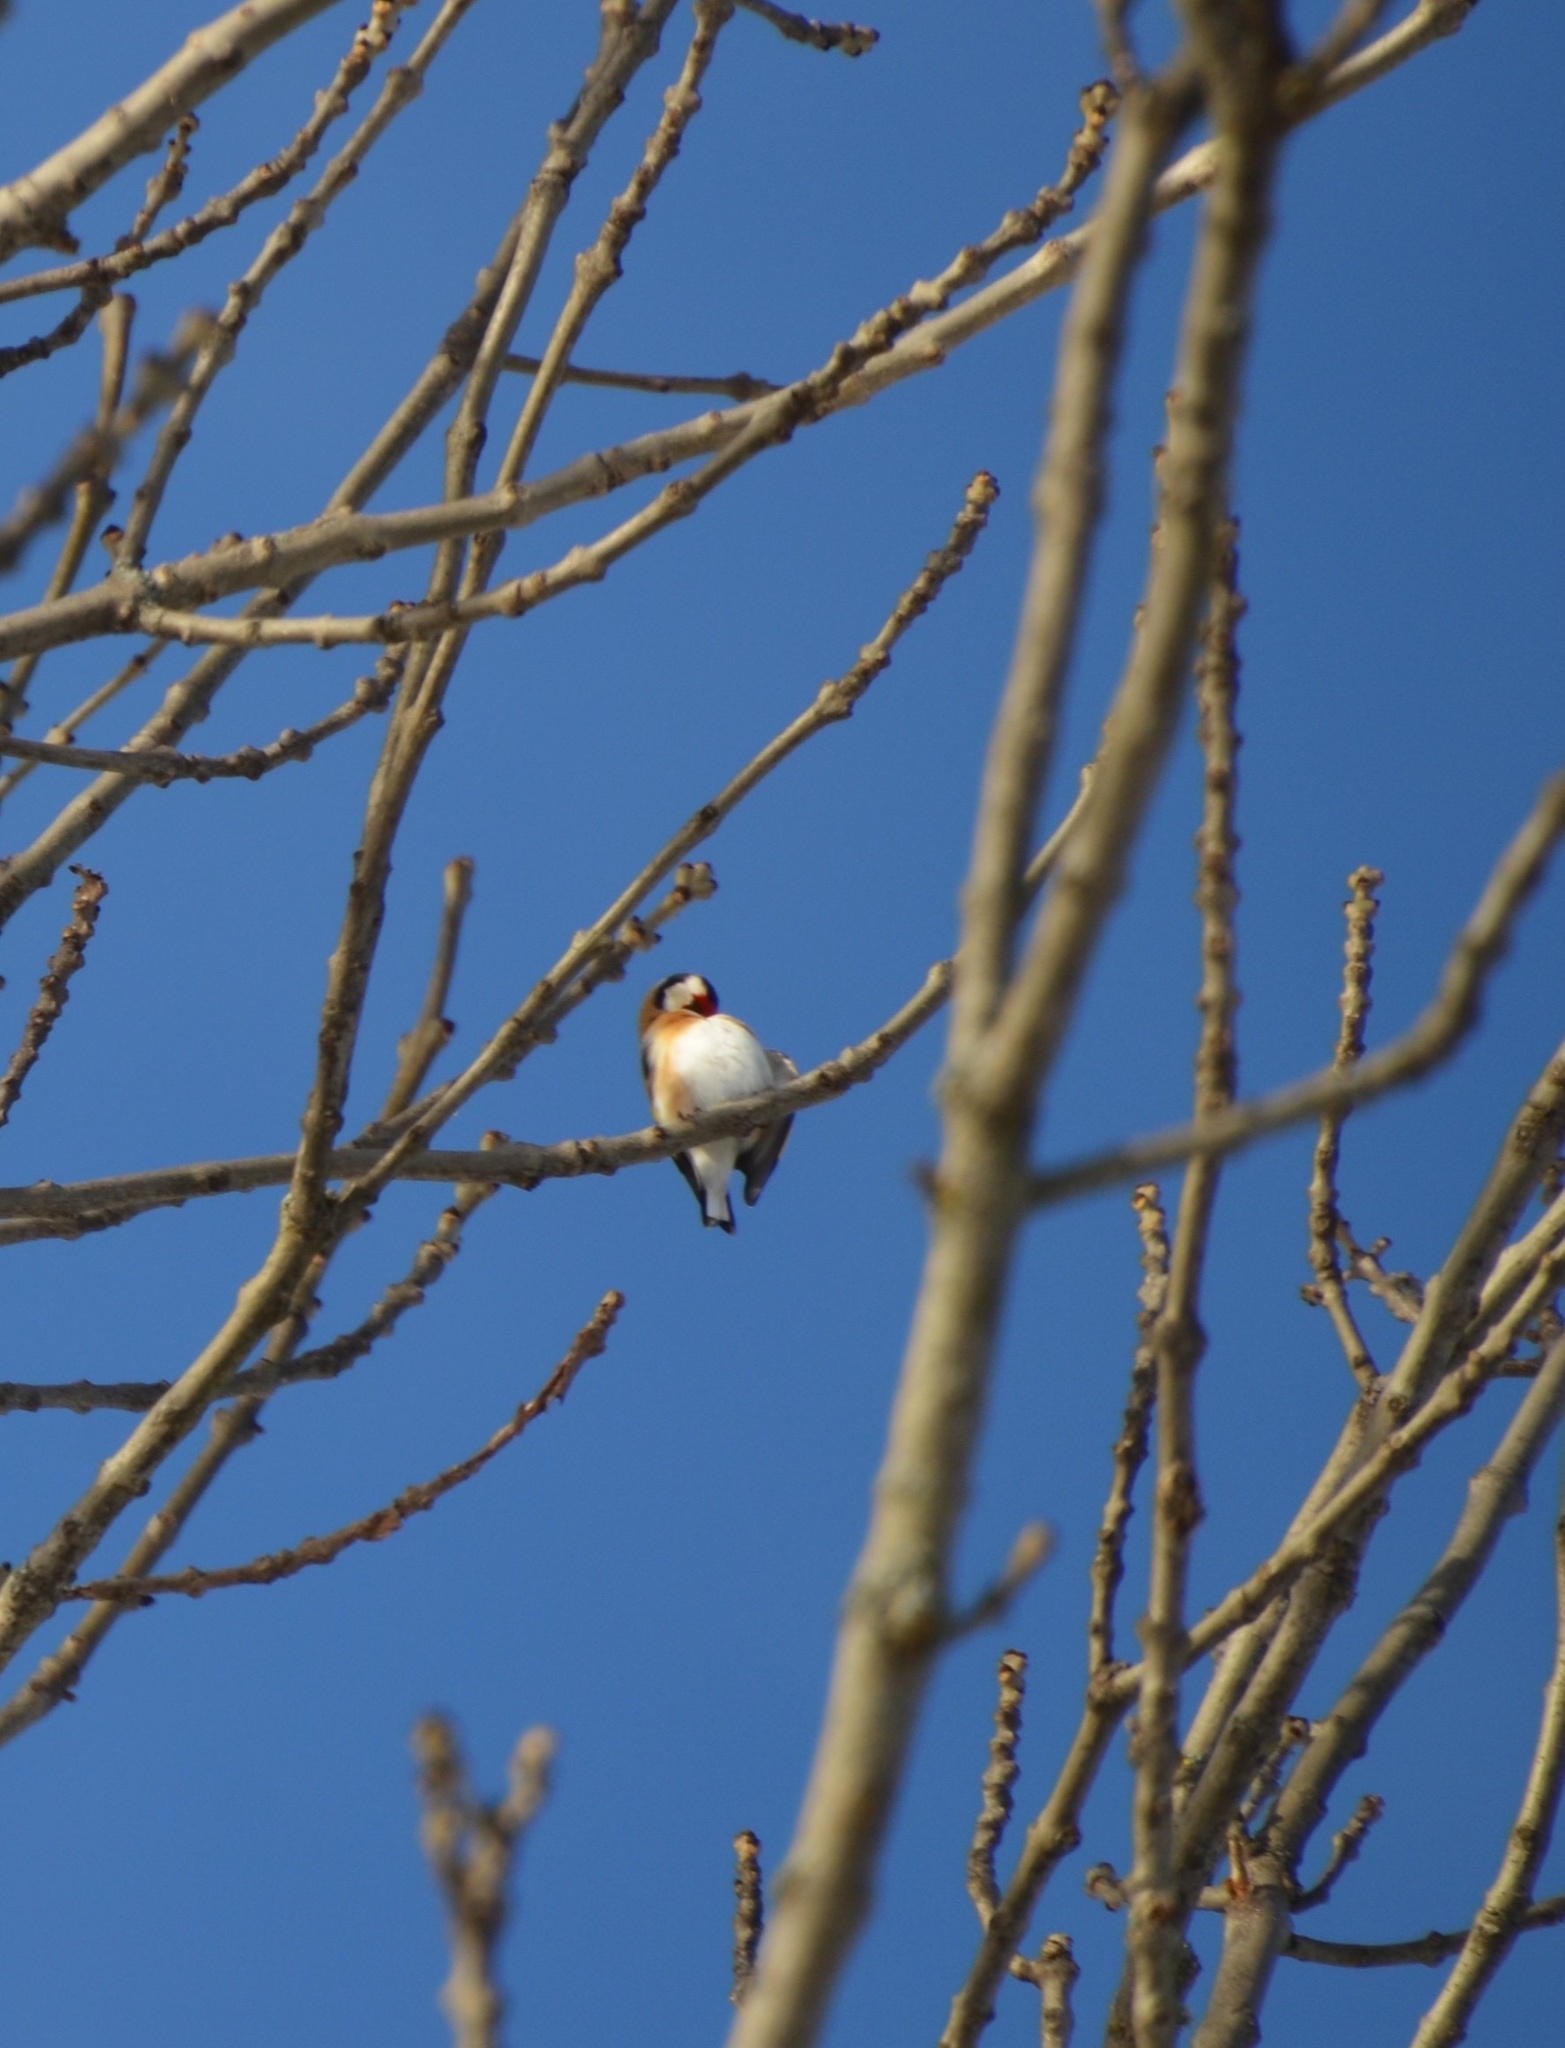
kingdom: Animalia
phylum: Chordata
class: Aves
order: Passeriformes
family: Fringillidae
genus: Carduelis
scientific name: Carduelis carduelis
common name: European goldfinch
